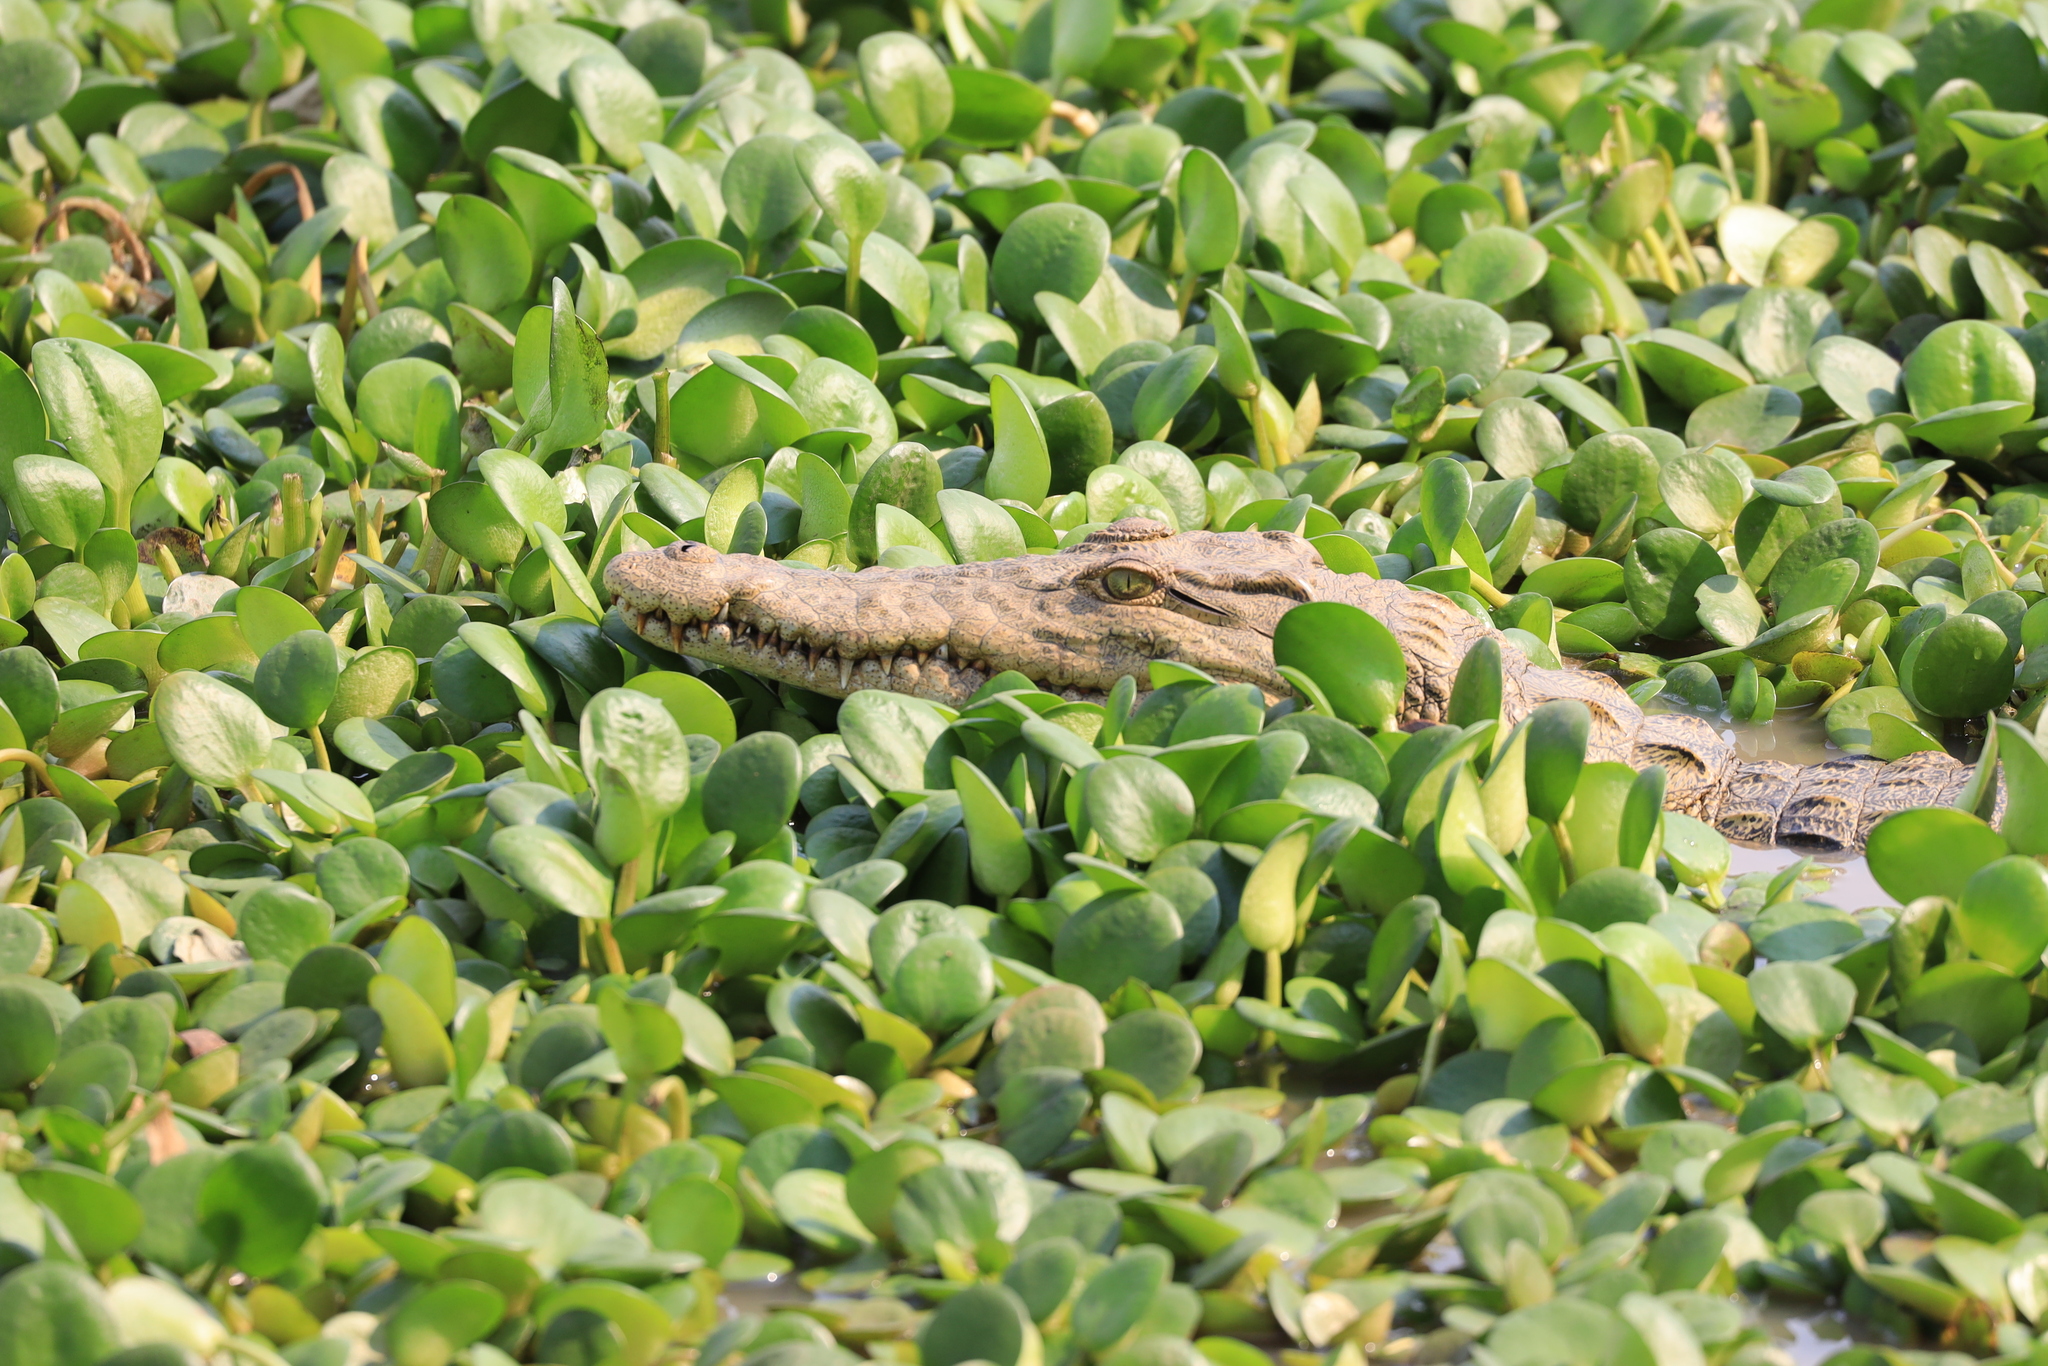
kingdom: Animalia
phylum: Chordata
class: Crocodylia
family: Crocodylidae
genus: Crocodylus
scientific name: Crocodylus niloticus
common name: Nile crocodile
